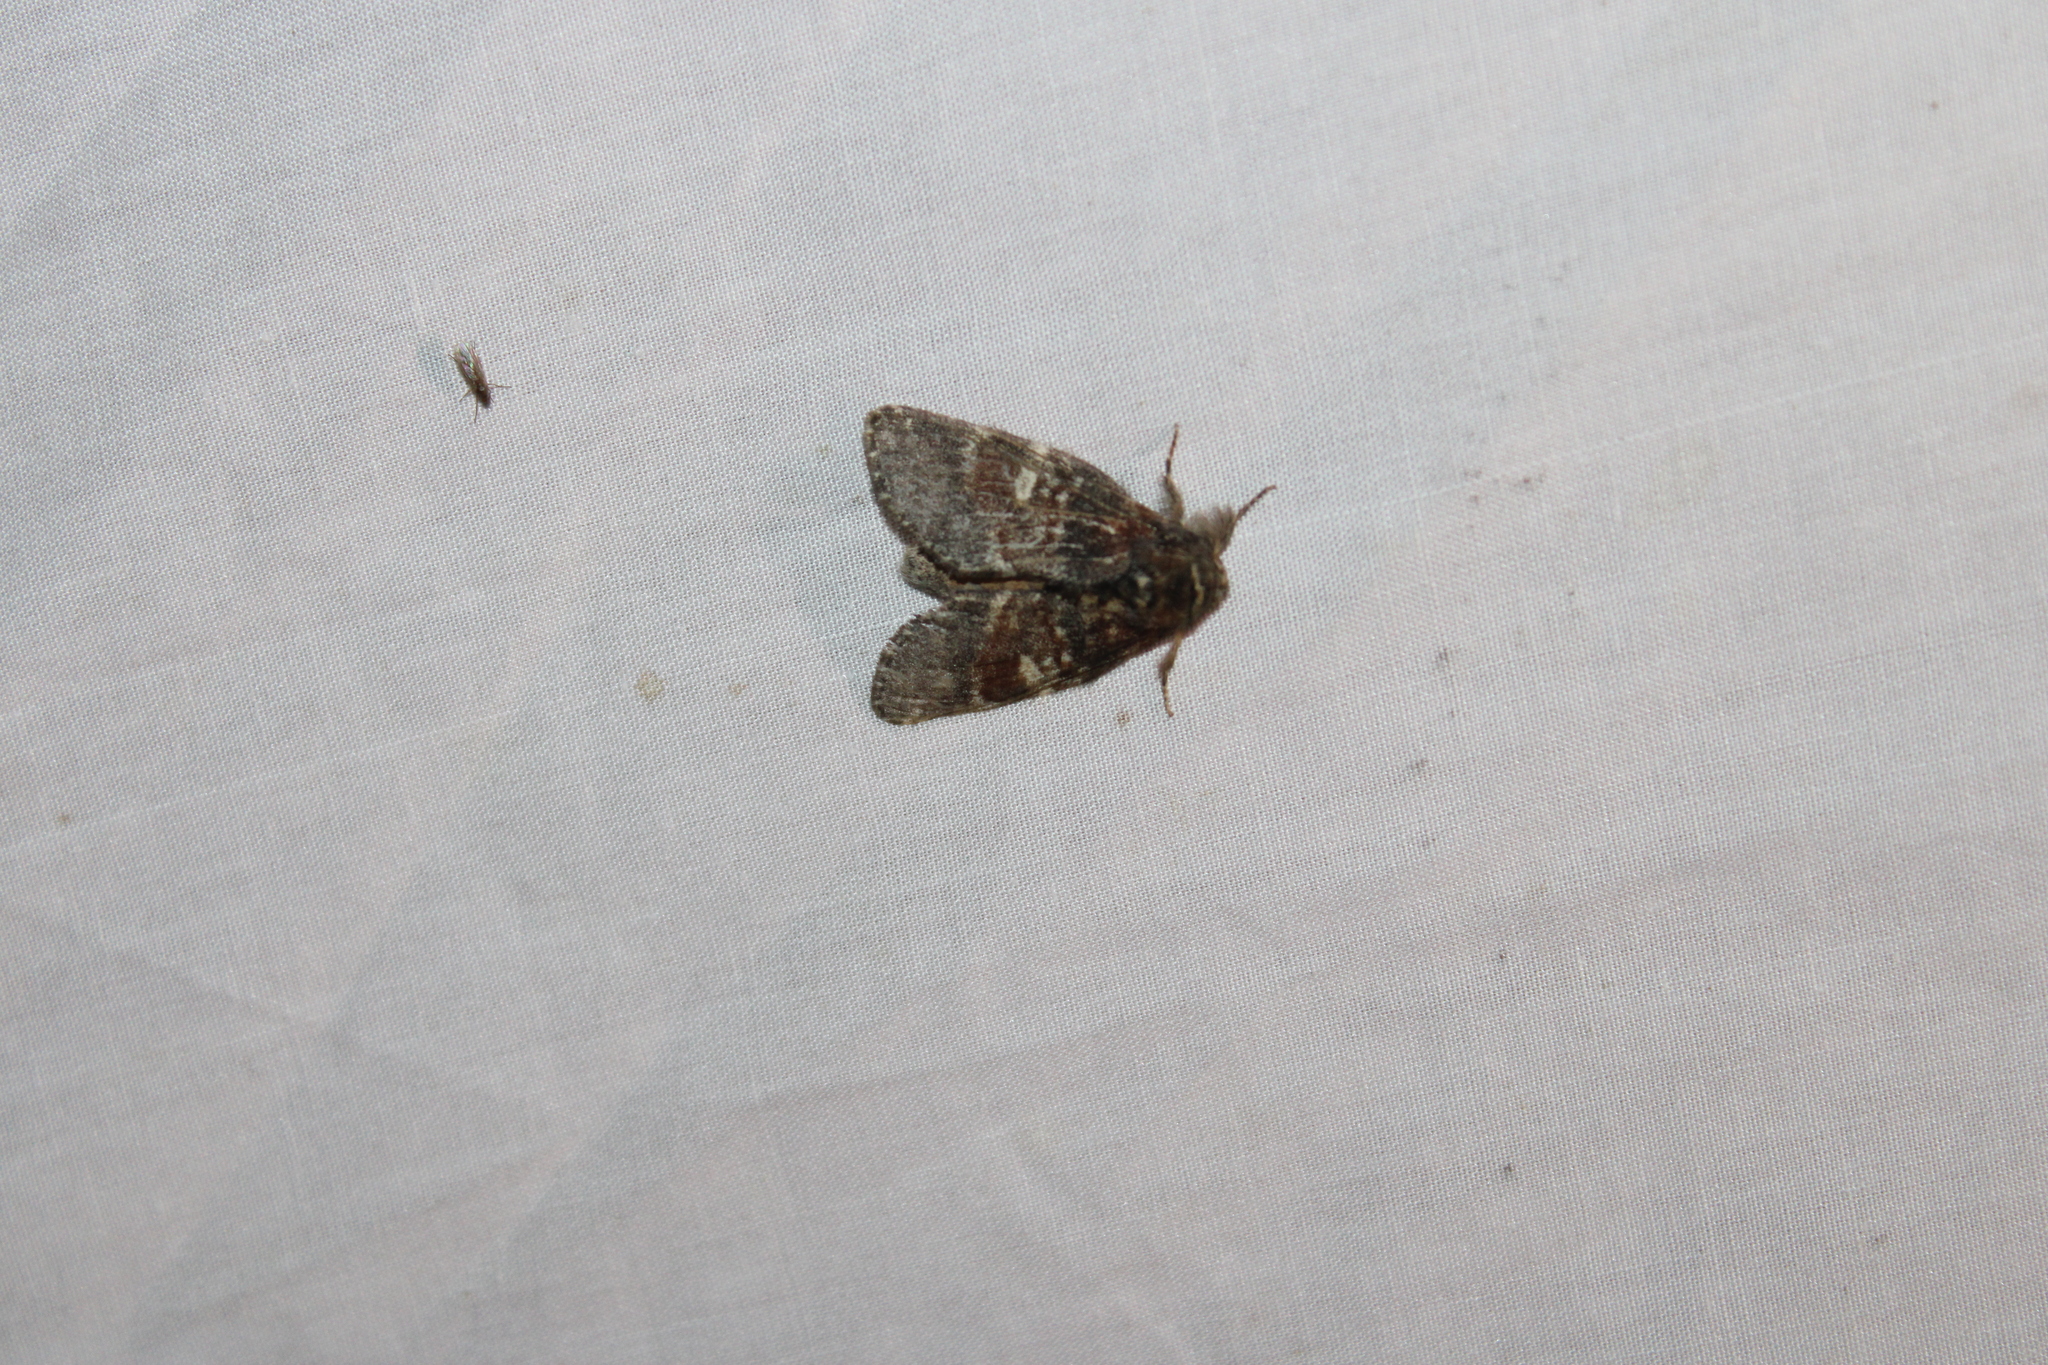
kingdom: Animalia
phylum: Arthropoda
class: Insecta
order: Lepidoptera
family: Notodontidae
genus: Peridea
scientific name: Peridea ferruginea
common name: Chocolate prominent
